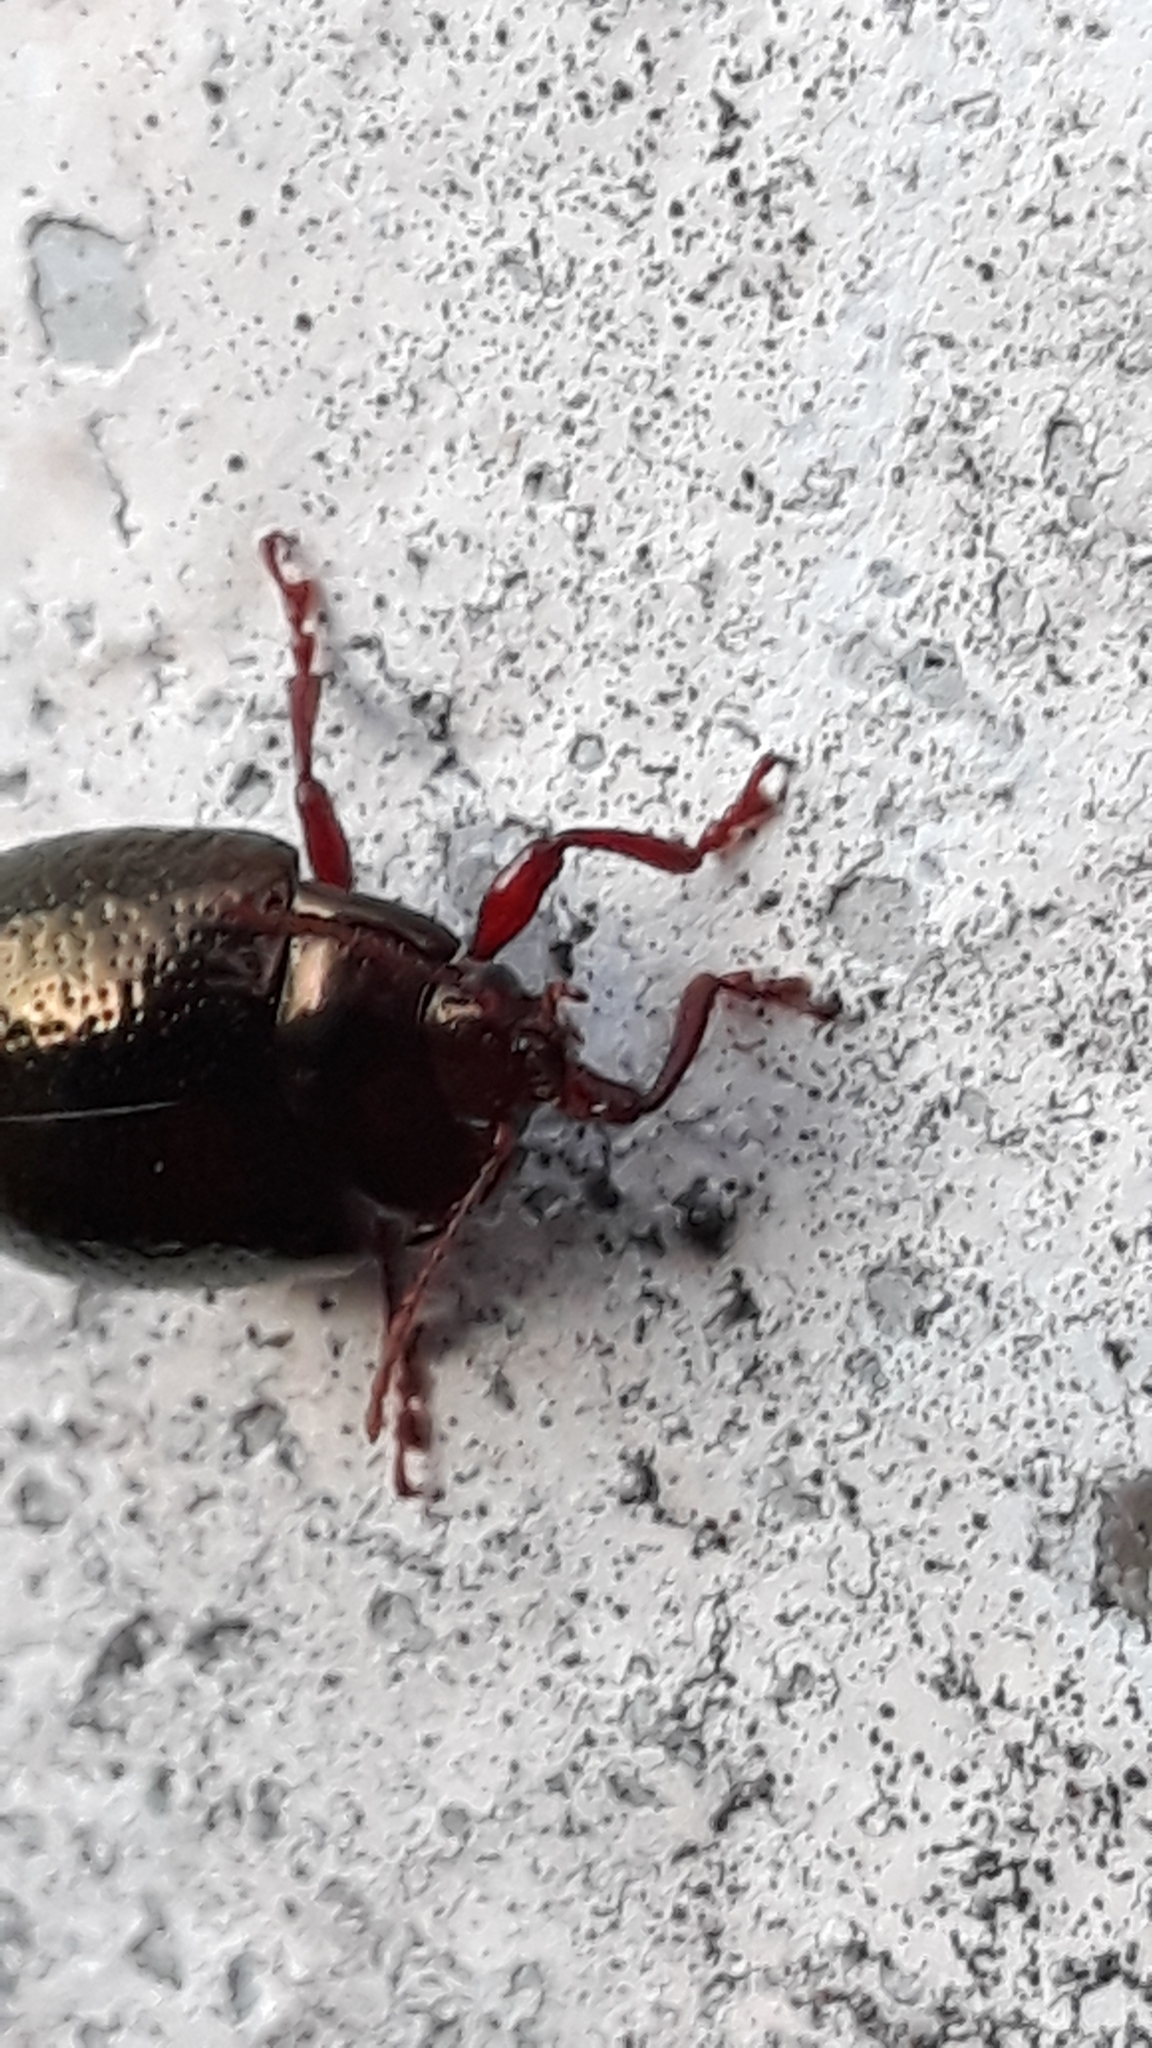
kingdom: Animalia
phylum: Arthropoda
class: Insecta
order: Coleoptera
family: Chrysomelidae
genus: Chrysolina
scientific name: Chrysolina bankii
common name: Leaf beetle
